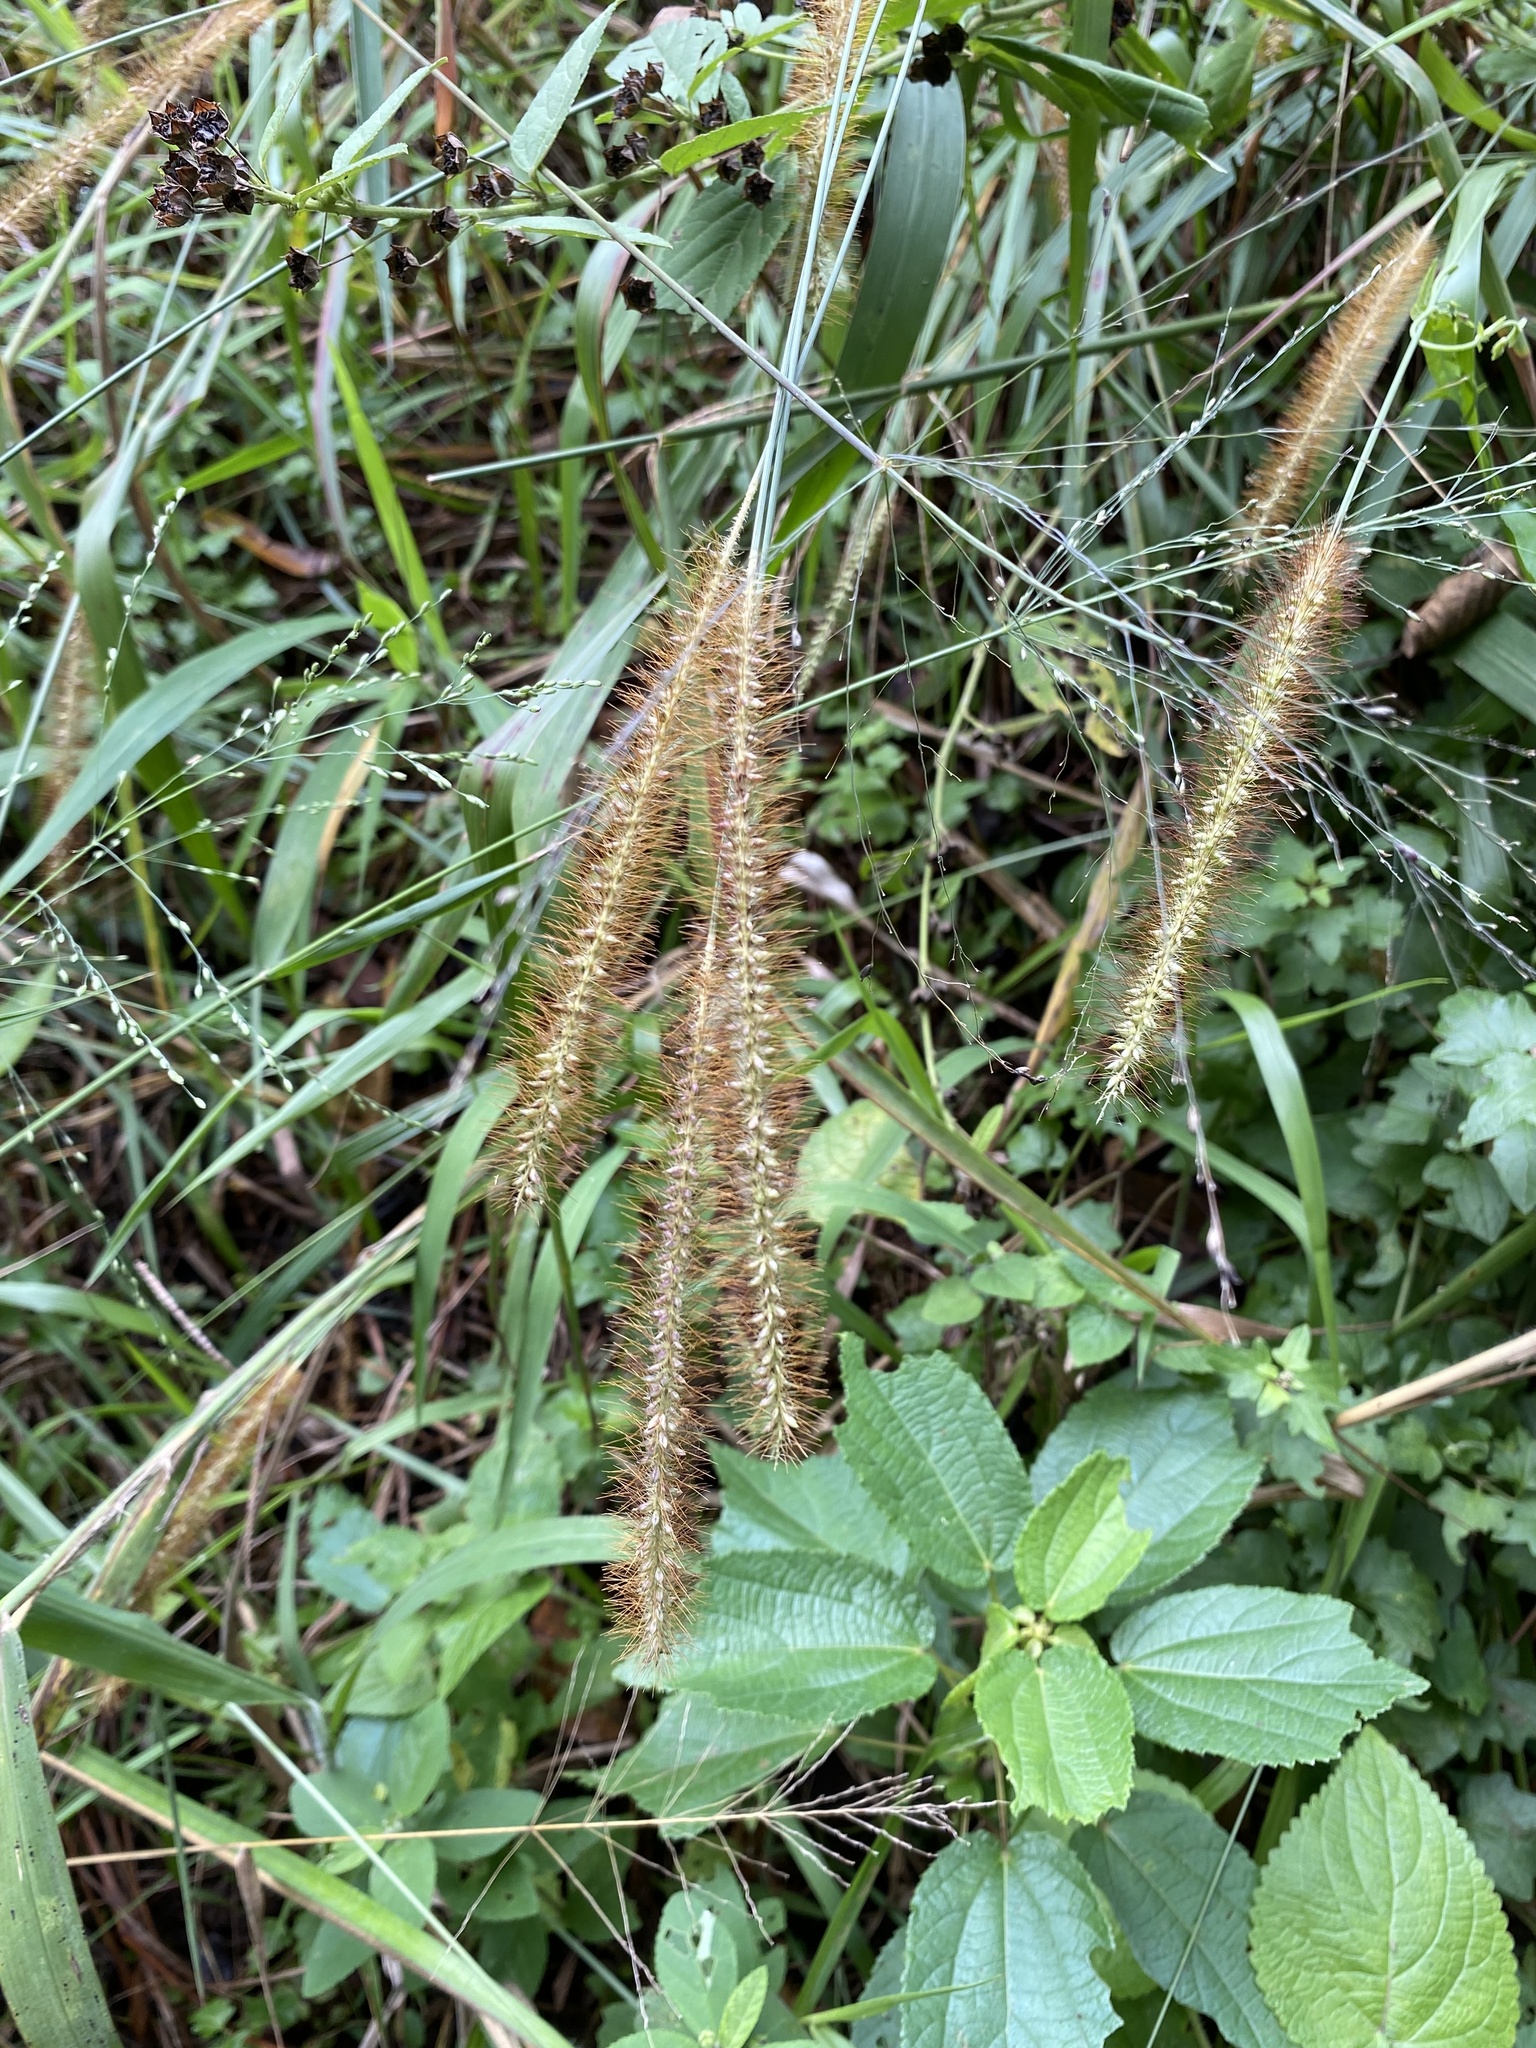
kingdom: Plantae
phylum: Tracheophyta
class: Liliopsida
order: Poales
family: Poaceae
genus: Setaria
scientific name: Setaria sphacelata
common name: African bristlegrass
